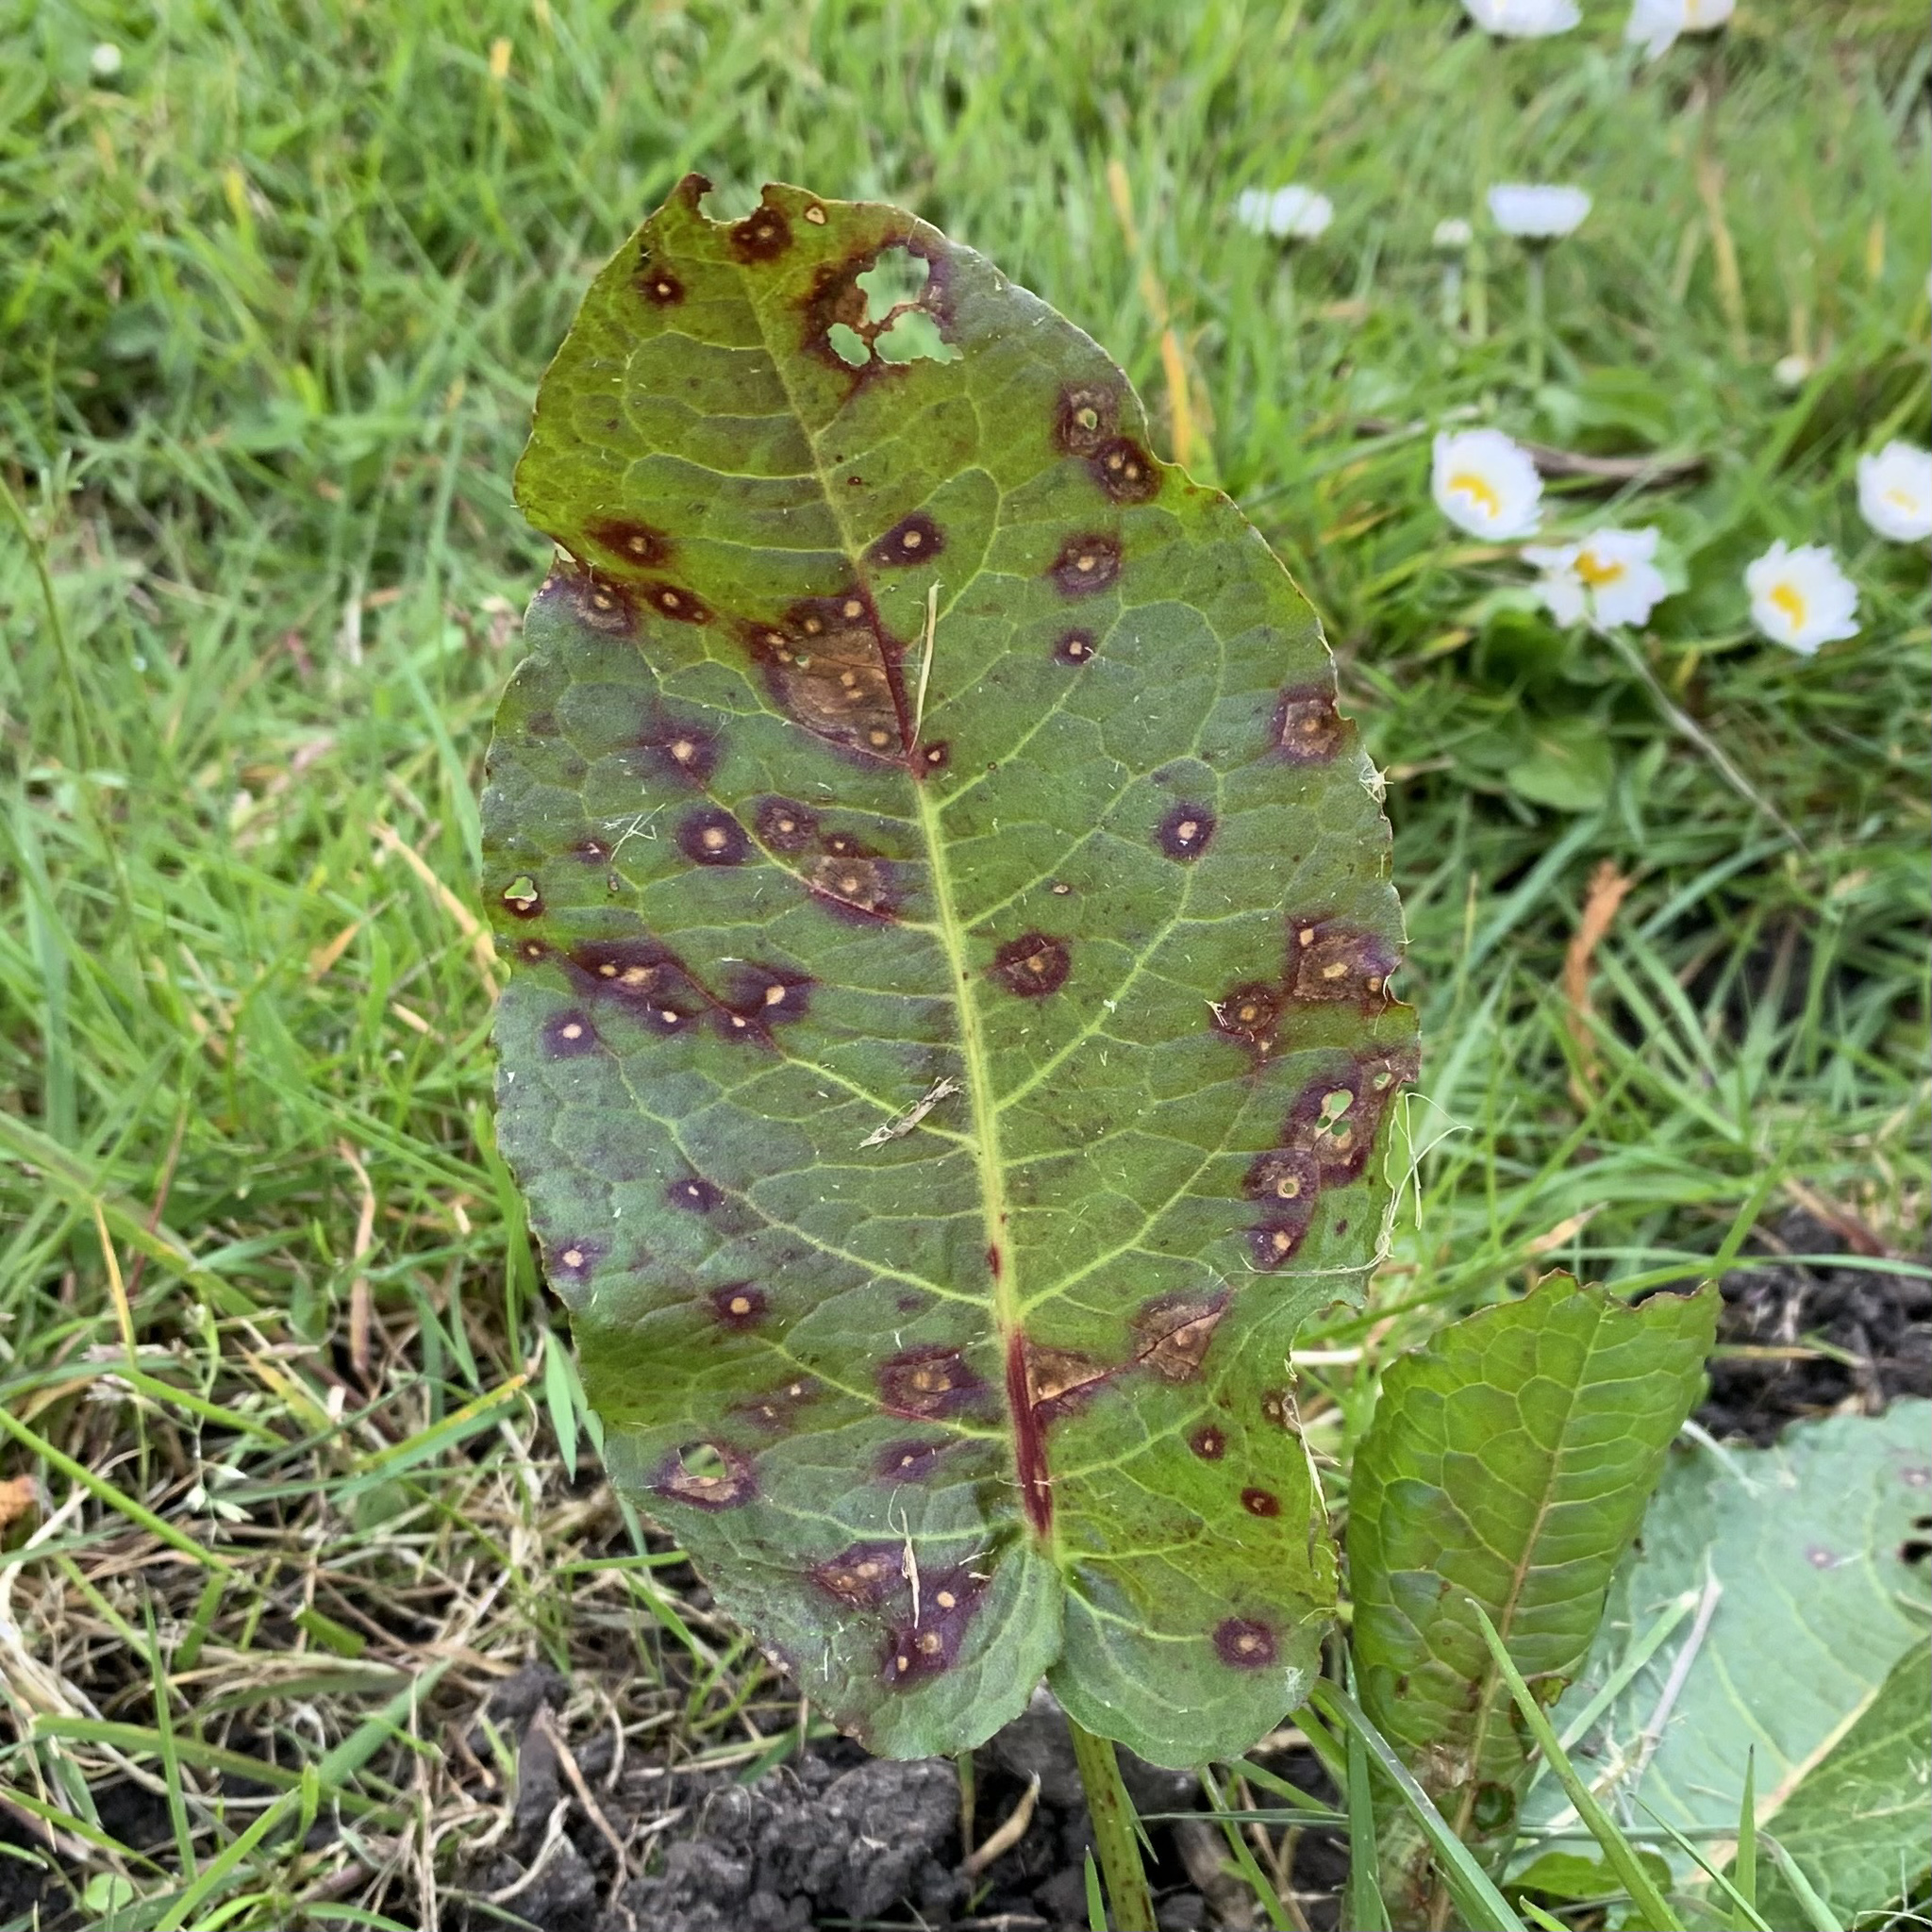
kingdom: Fungi
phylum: Ascomycota
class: Dothideomycetes
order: Mycosphaerellales
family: Mycosphaerellaceae
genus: Ramularia
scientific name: Ramularia rubella
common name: Red dock spot
